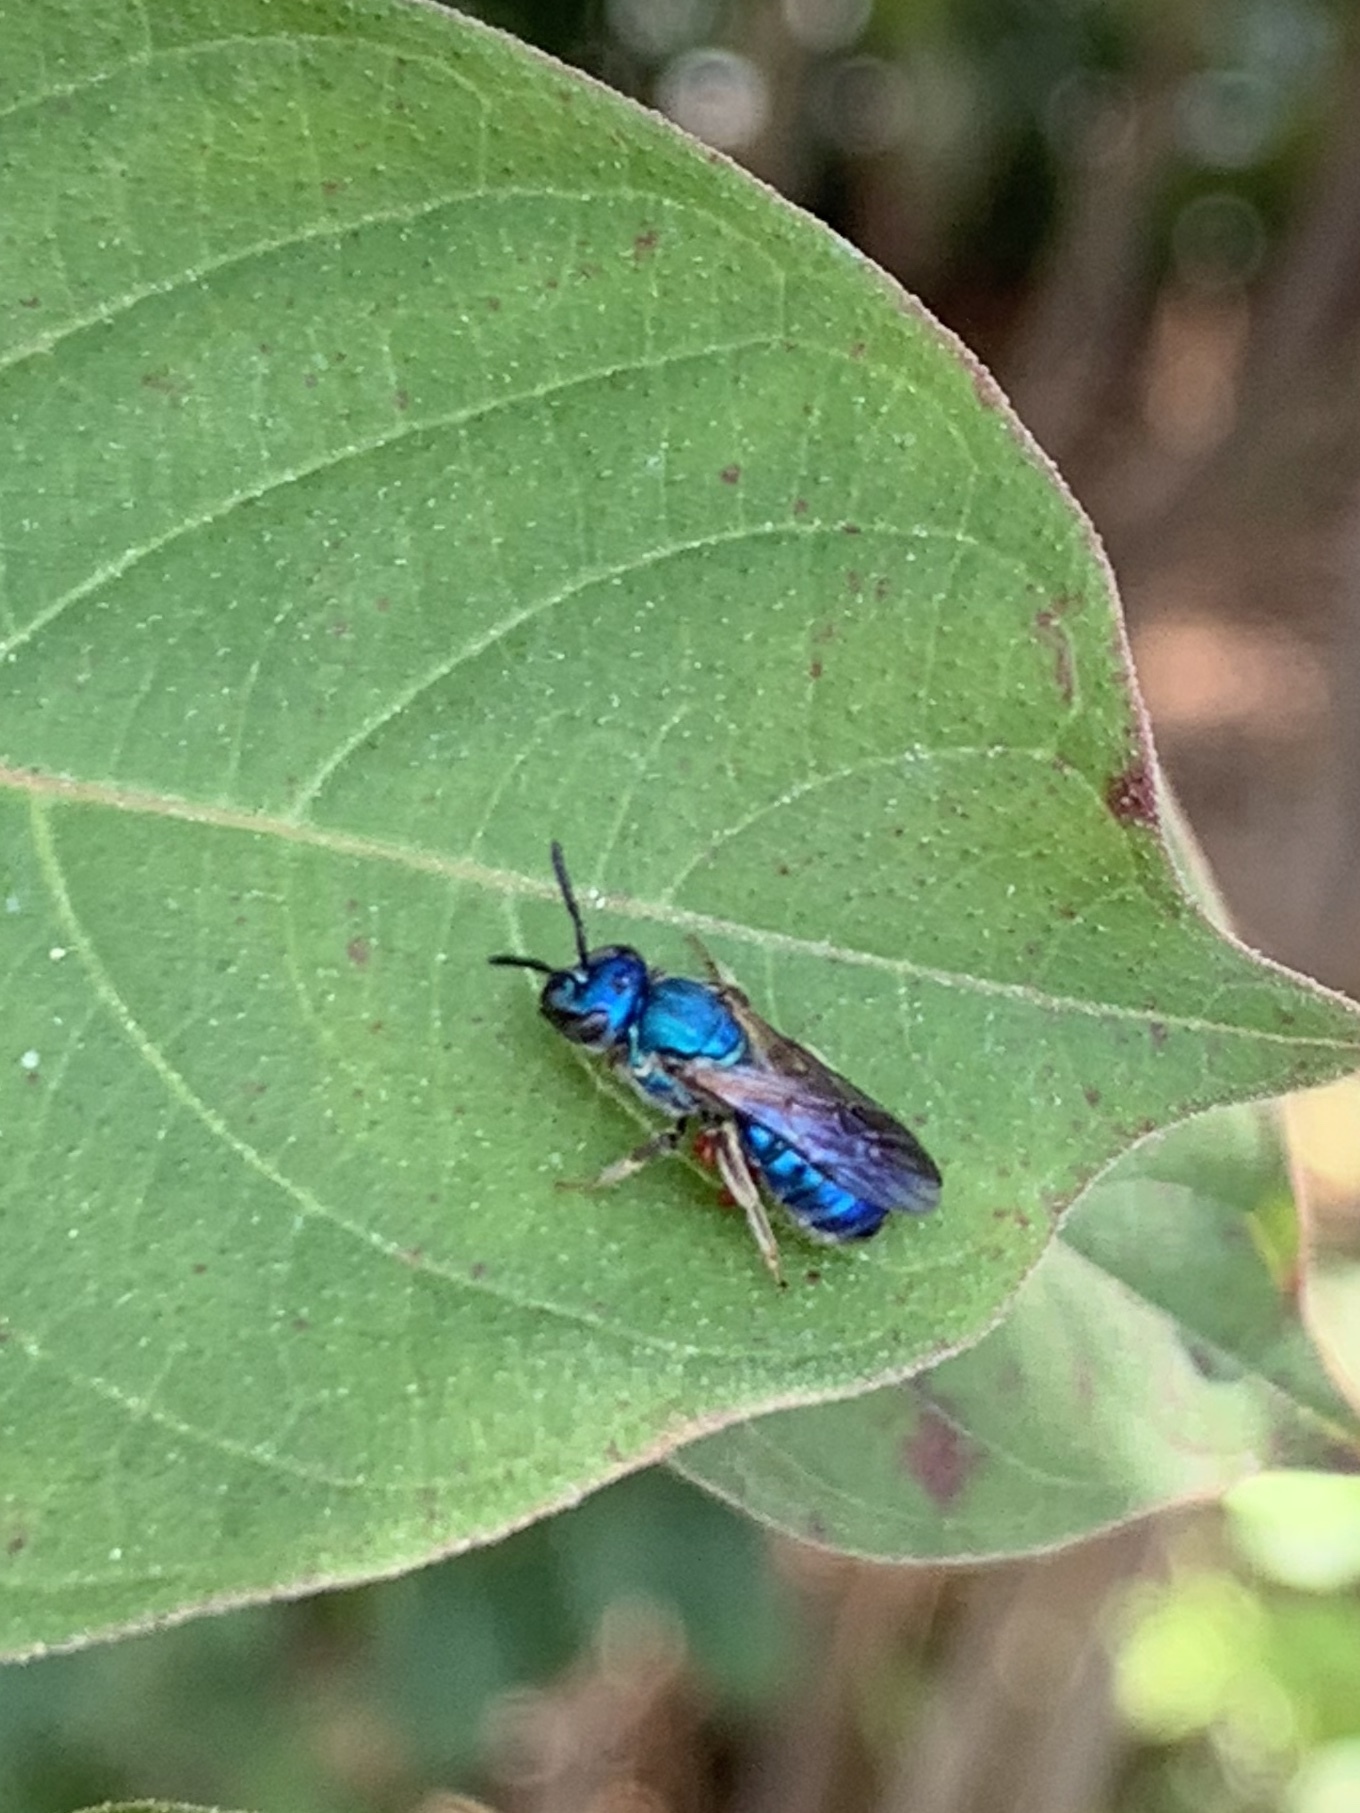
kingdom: Animalia
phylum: Arthropoda
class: Insecta
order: Hymenoptera
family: Halictidae
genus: Augochlora
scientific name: Augochlora pura
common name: Pure green sweat bee
